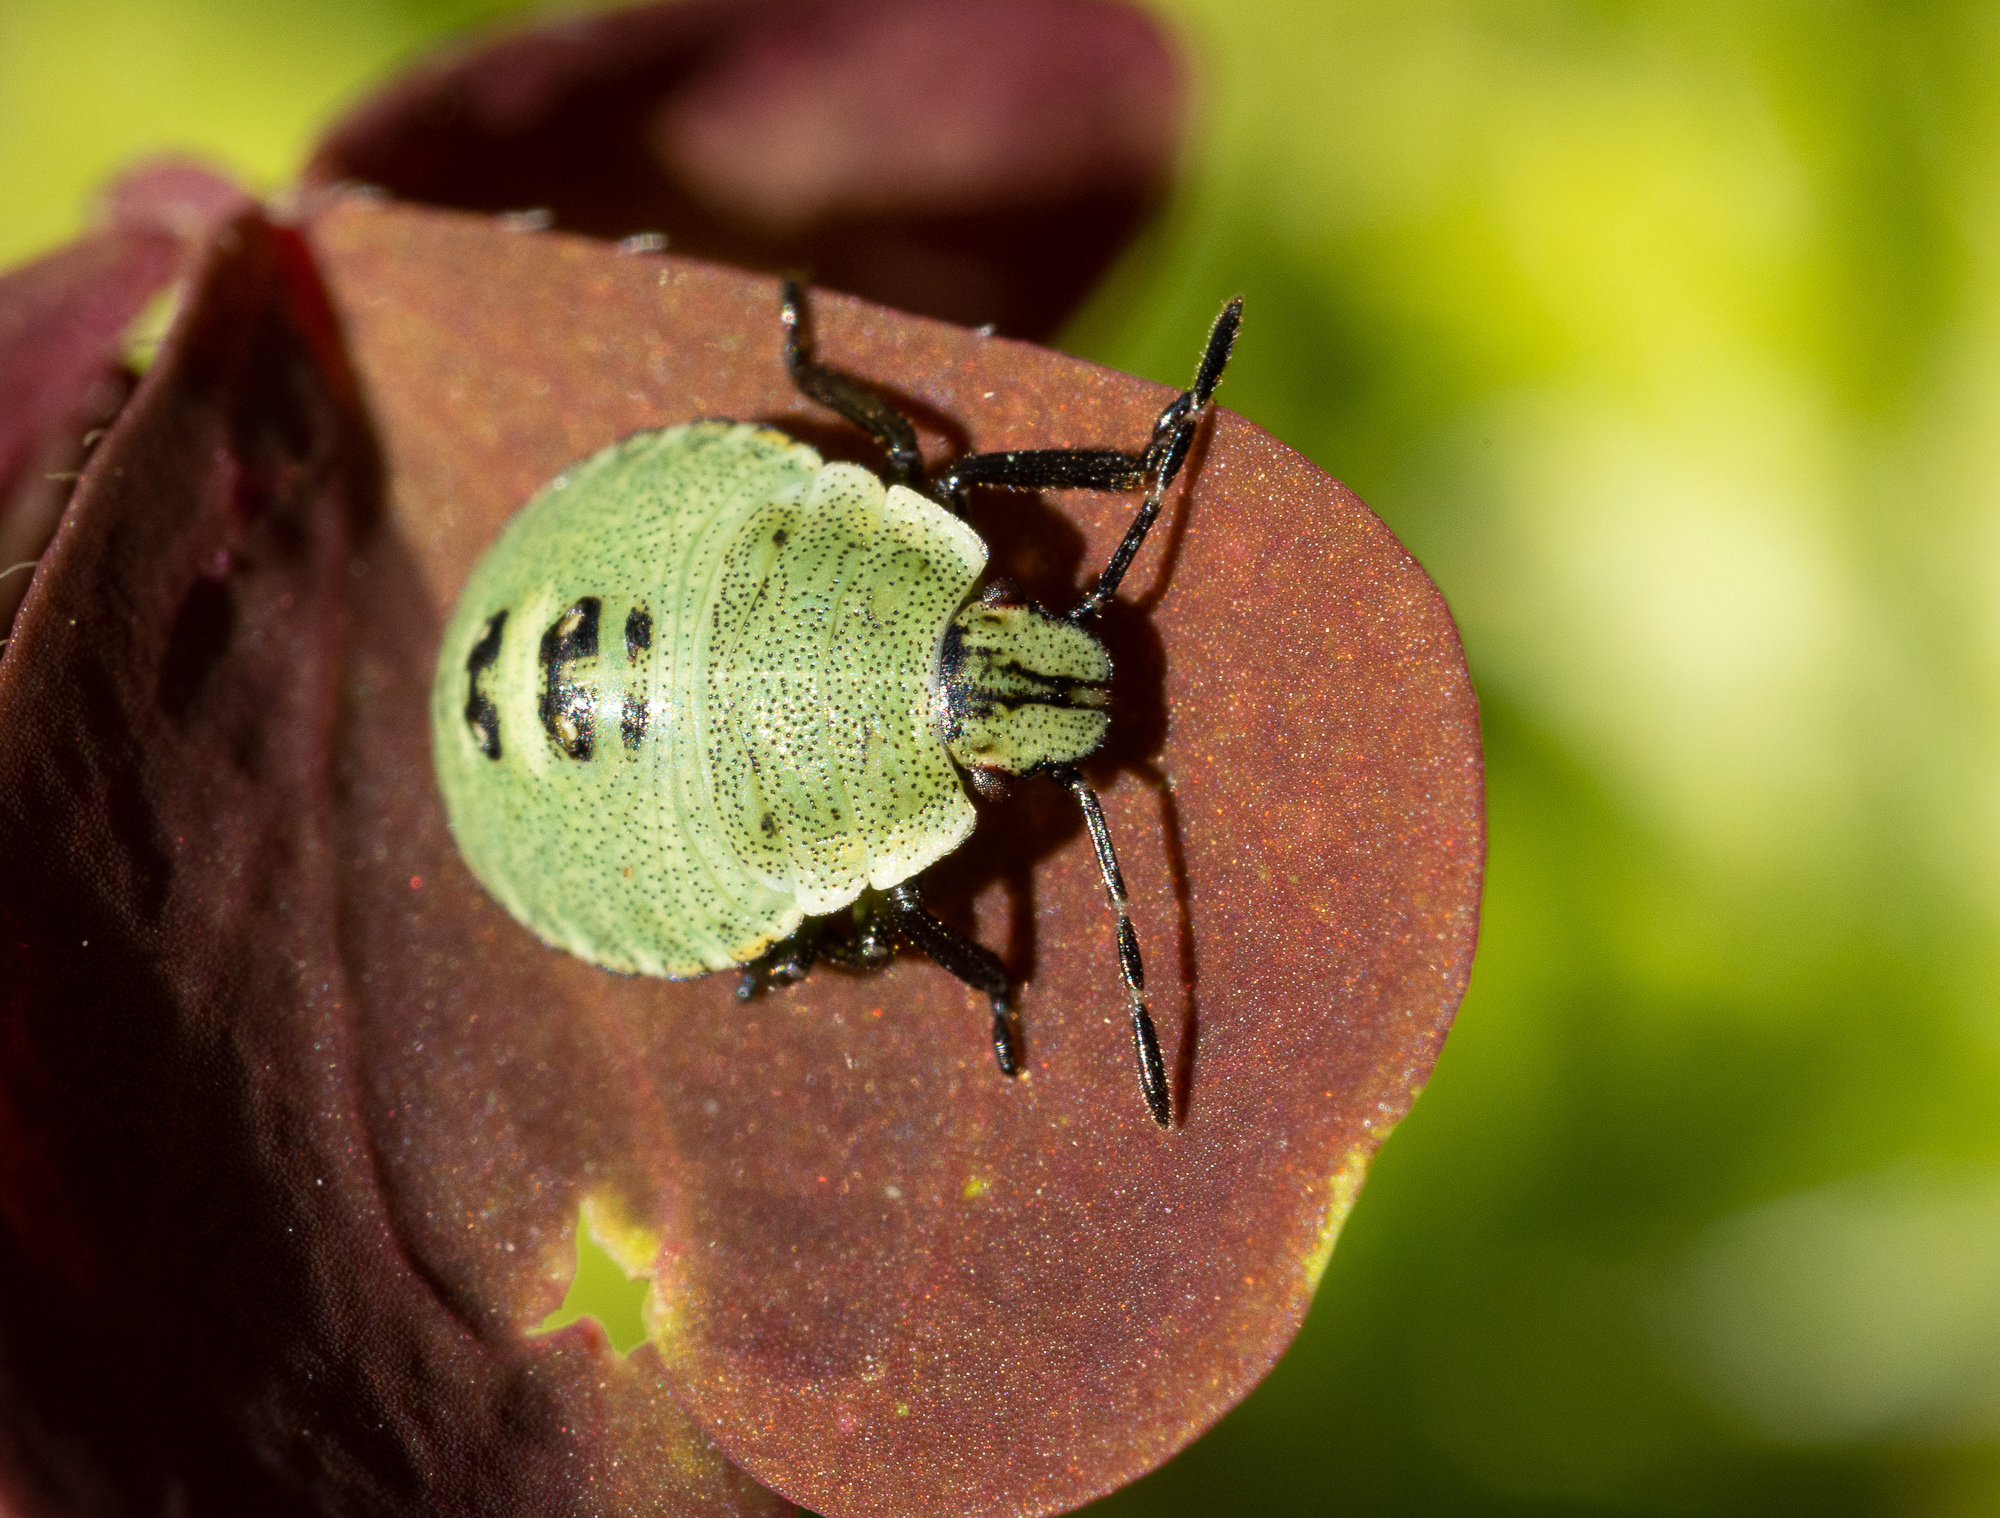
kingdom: Animalia
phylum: Arthropoda
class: Insecta
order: Hemiptera
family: Pentatomidae
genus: Palomena
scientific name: Palomena prasina
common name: Green shieldbug
